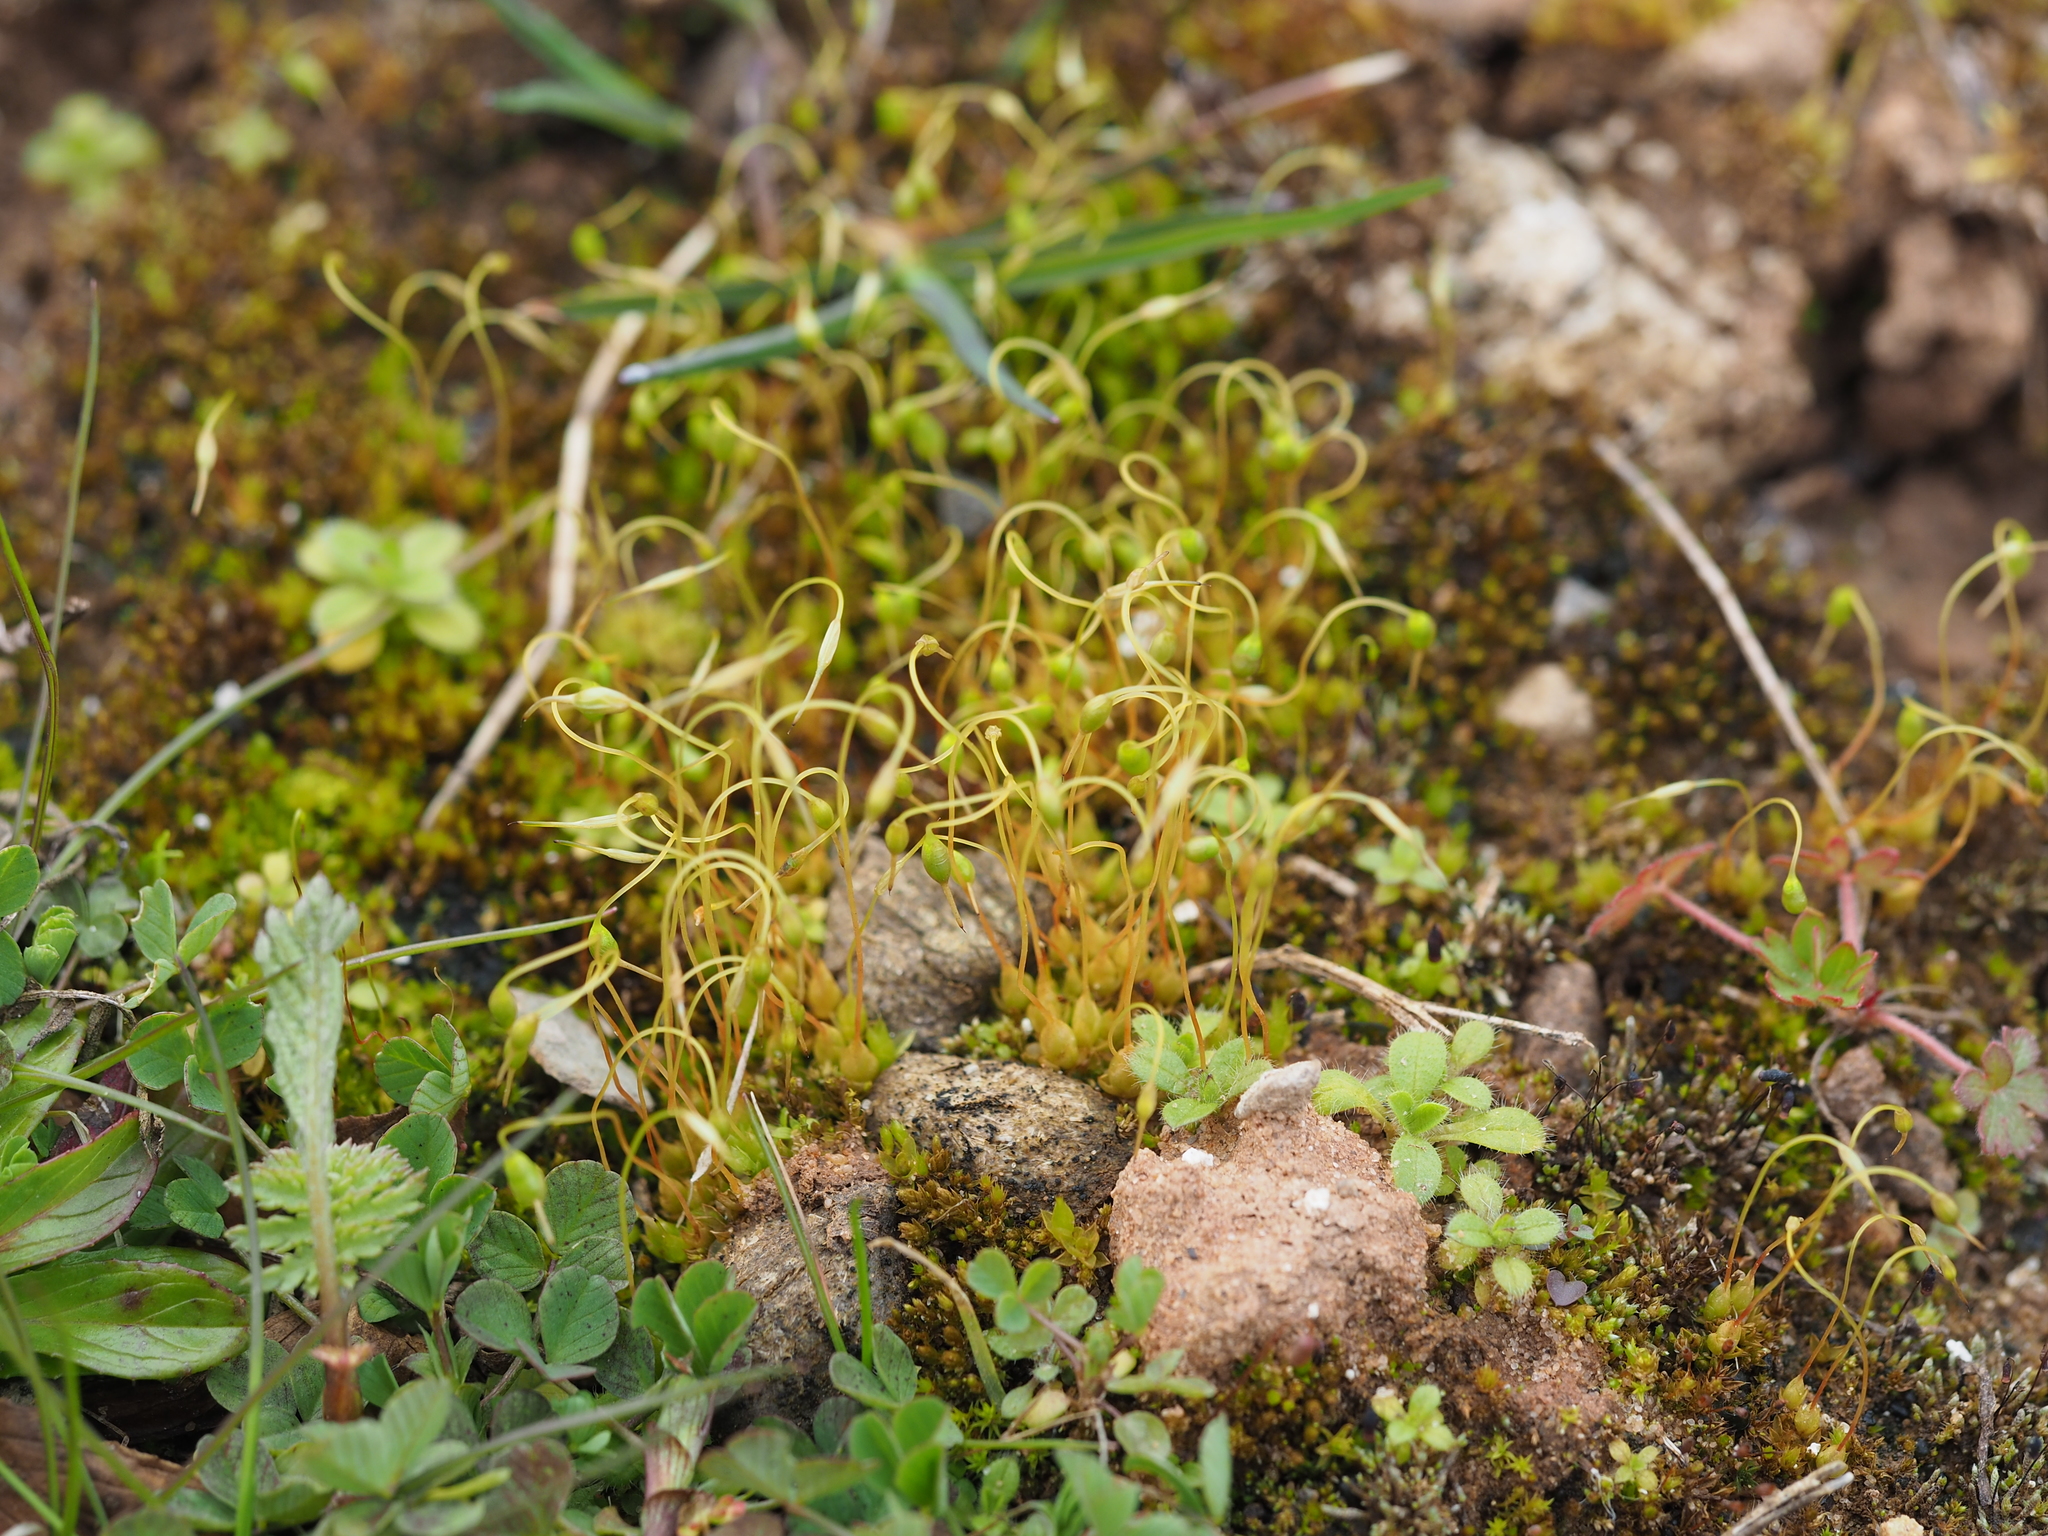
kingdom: Plantae
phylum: Bryophyta
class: Bryopsida
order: Funariales
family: Funariaceae
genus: Funaria
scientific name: Funaria hygrometrica
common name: Common cord moss
